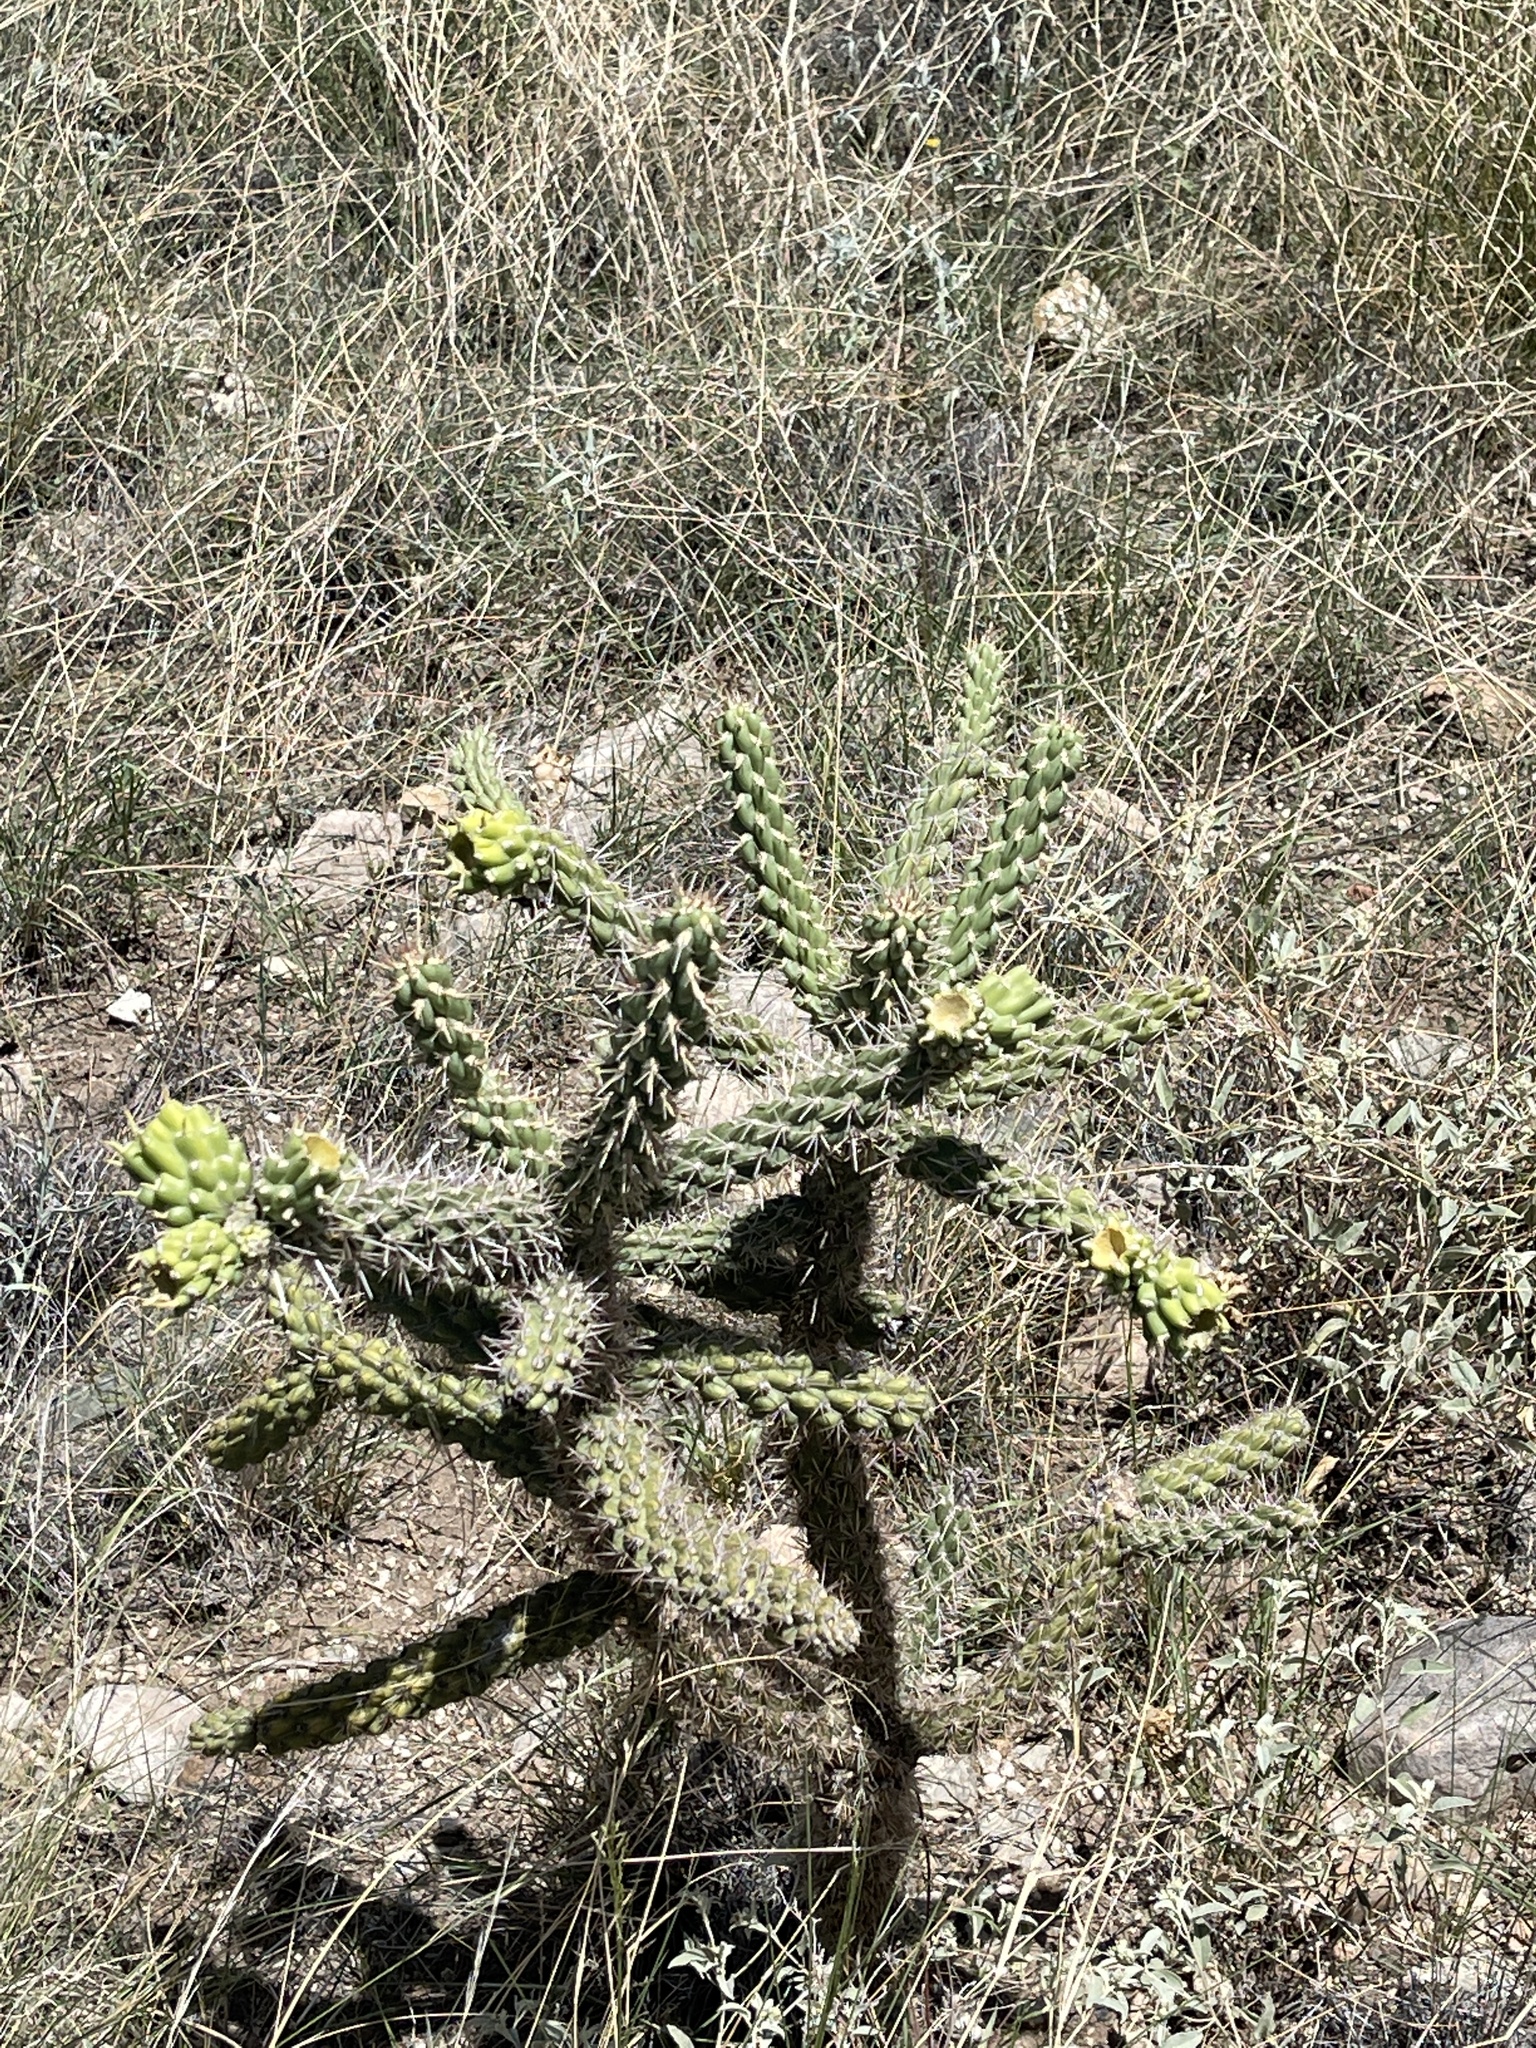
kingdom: Plantae
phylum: Tracheophyta
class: Magnoliopsida
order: Caryophyllales
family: Cactaceae
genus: Cylindropuntia
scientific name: Cylindropuntia imbricata
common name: Candelabrum cactus
